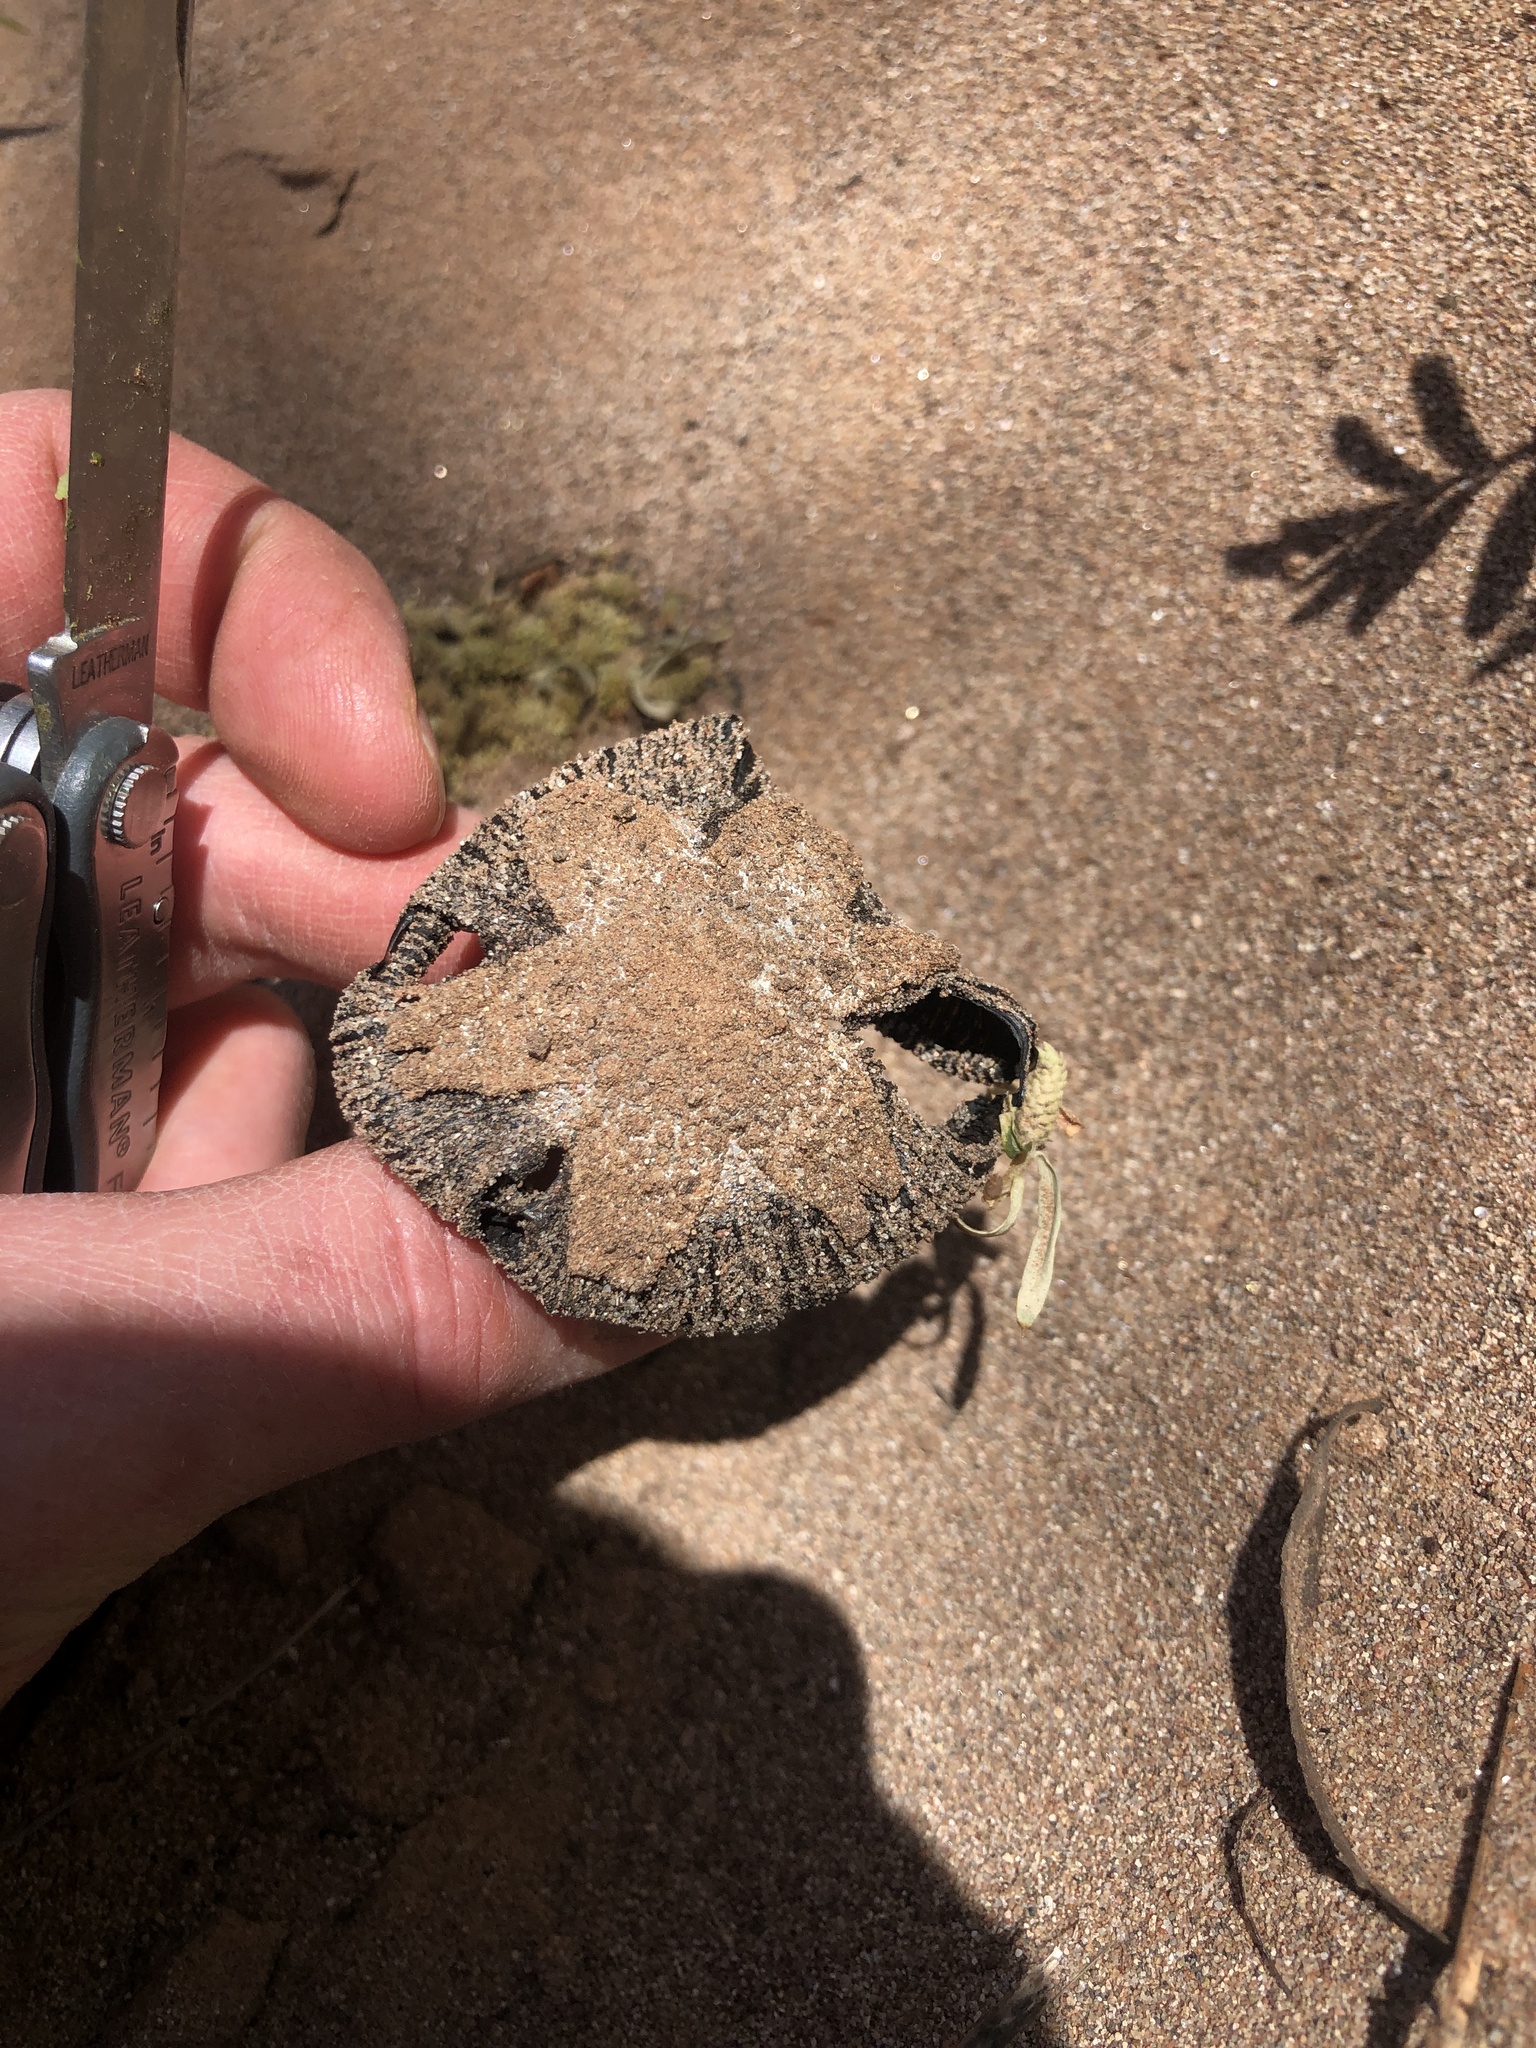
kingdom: Fungi
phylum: Basidiomycota
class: Agaricomycetes
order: Agaricales
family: Agaricaceae
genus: Coprinus
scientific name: Coprinus calyptratus
